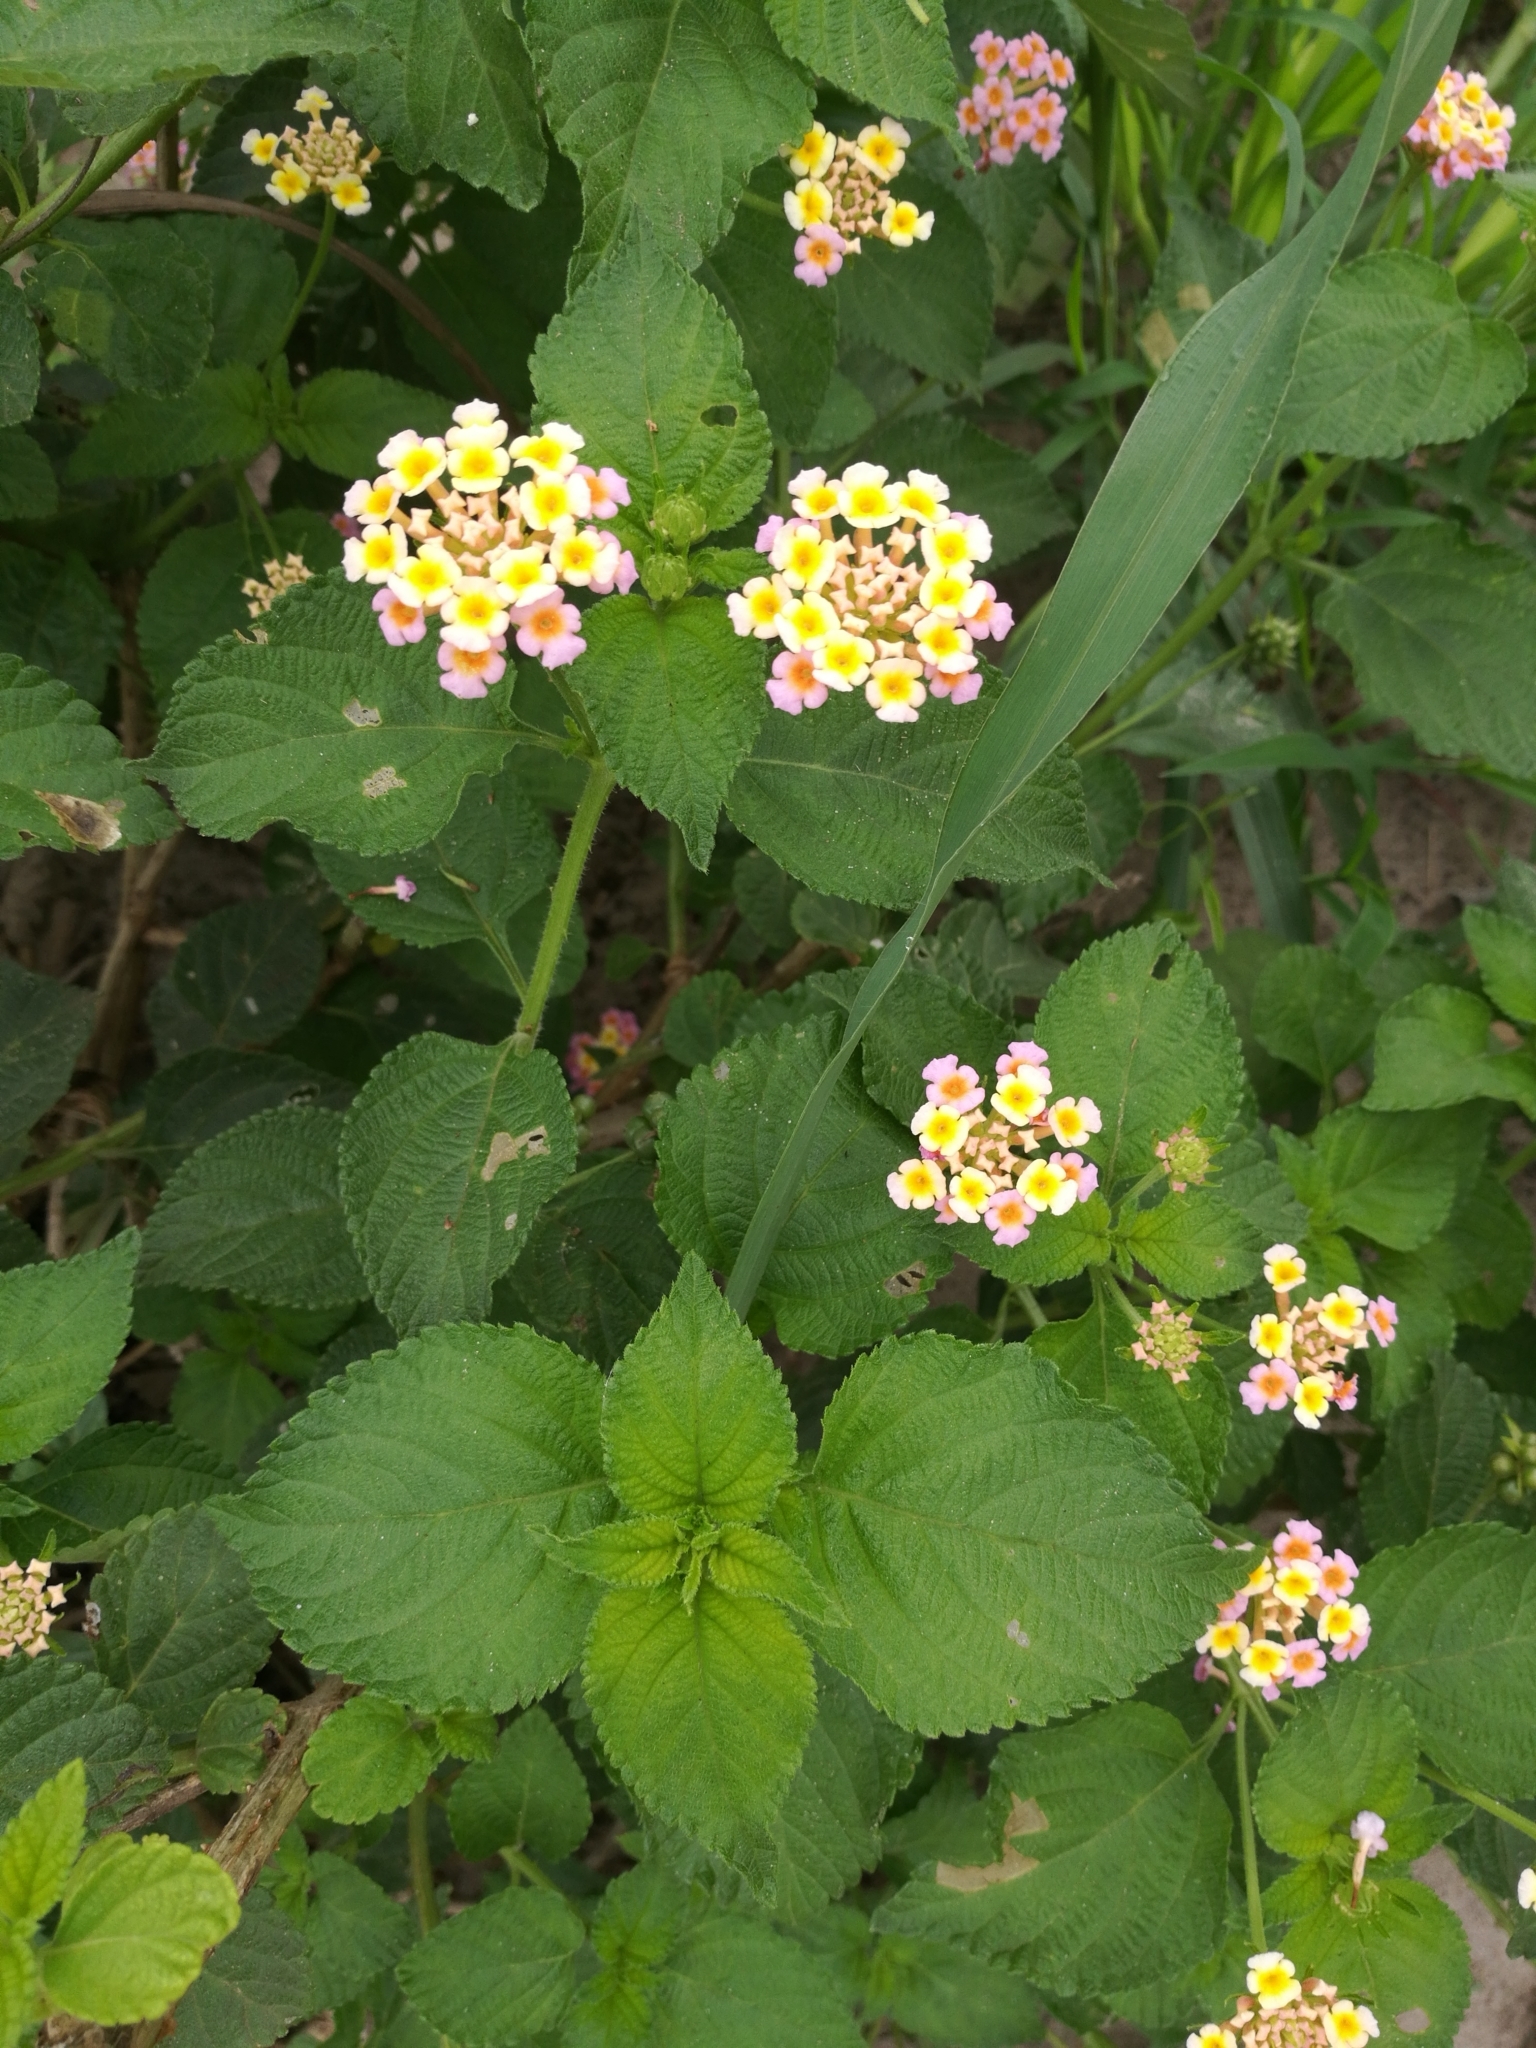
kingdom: Plantae
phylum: Tracheophyta
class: Magnoliopsida
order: Lamiales
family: Verbenaceae
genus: Lantana
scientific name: Lantana camara
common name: Lantana
